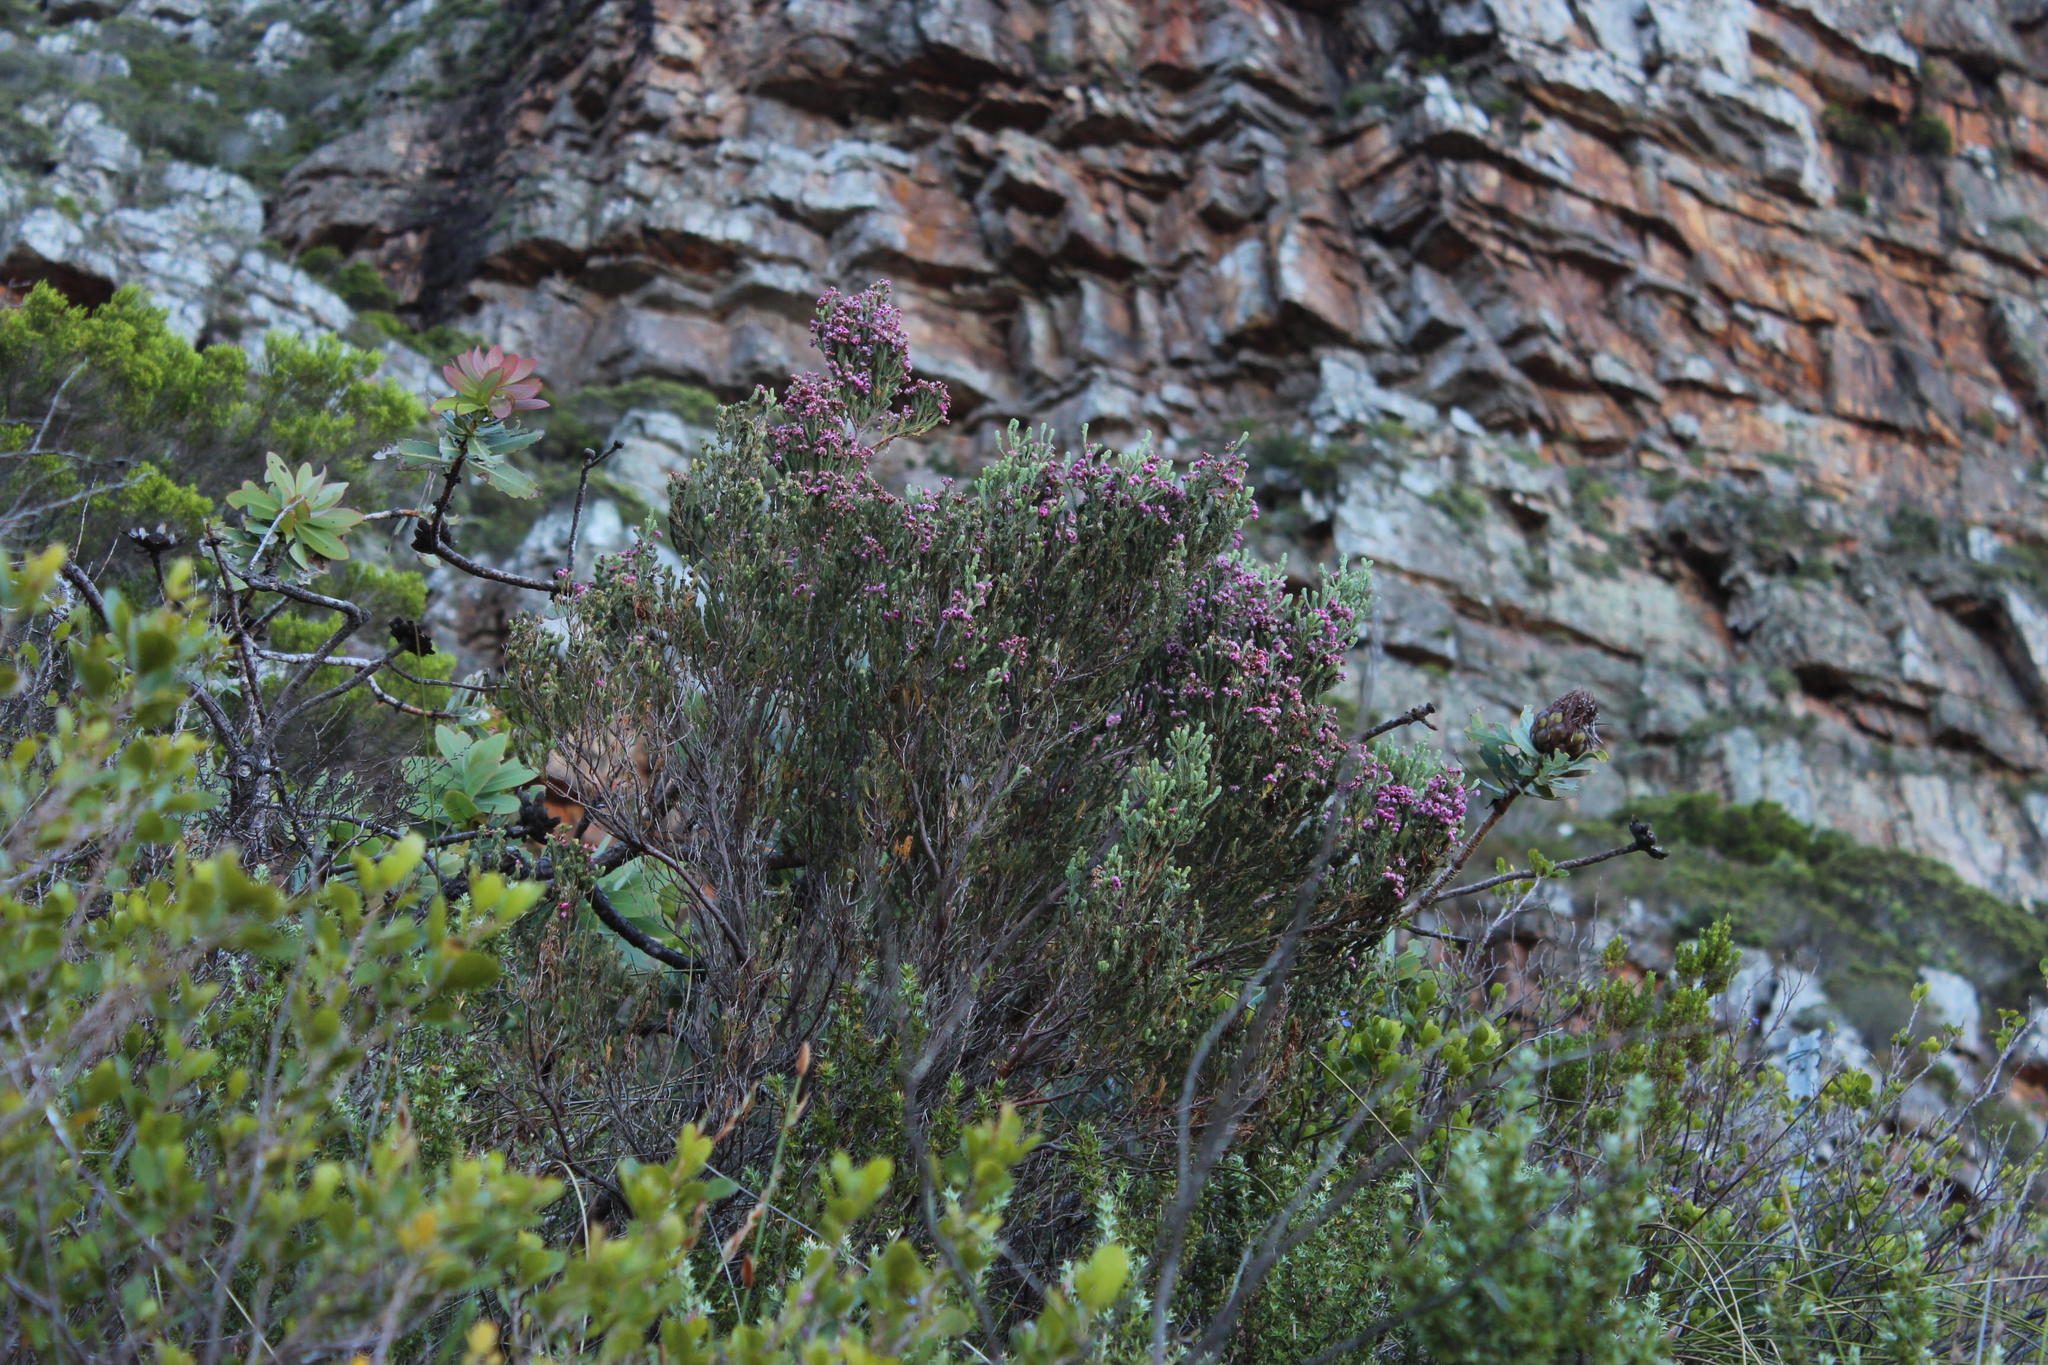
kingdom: Plantae
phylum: Tracheophyta
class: Magnoliopsida
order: Ericales
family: Ericaceae
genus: Erica
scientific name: Erica baccans
